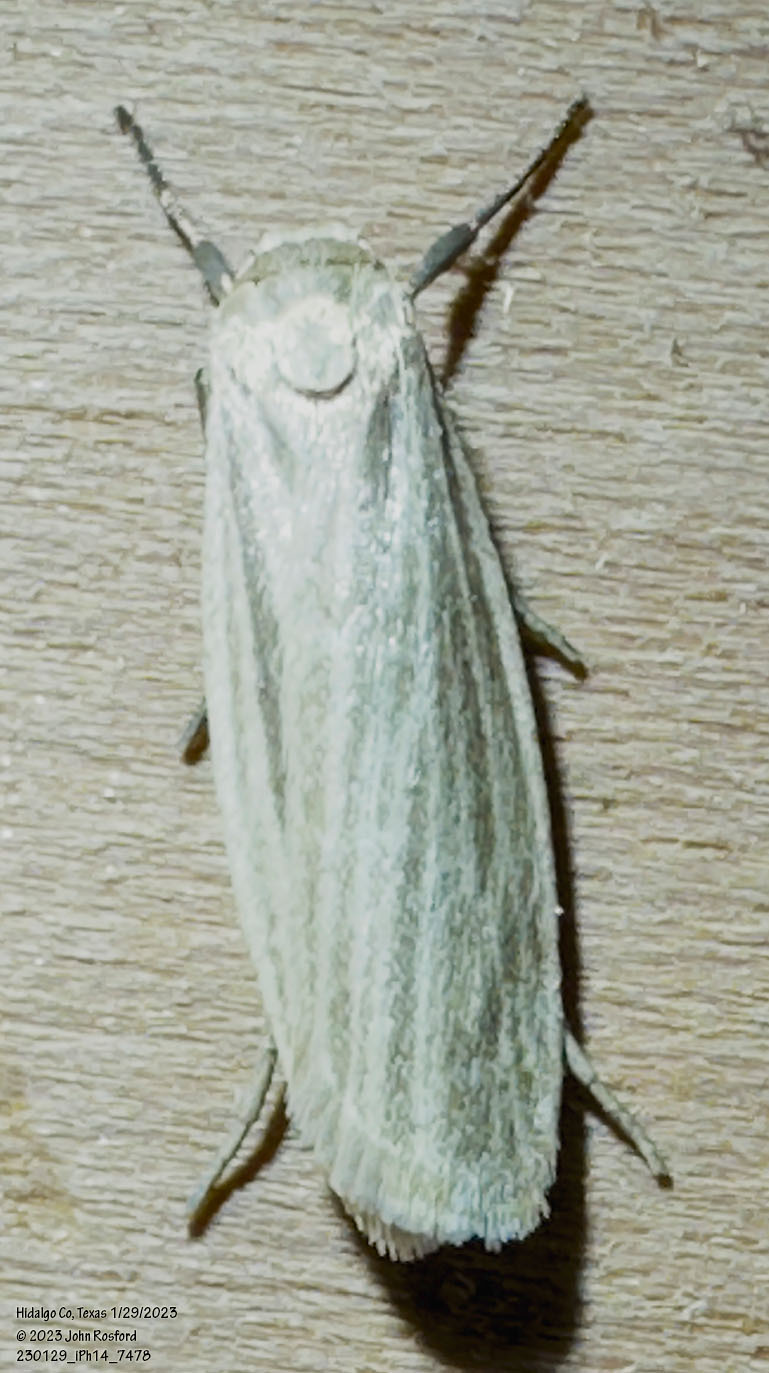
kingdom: Animalia
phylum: Arthropoda
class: Insecta
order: Lepidoptera
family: Erebidae
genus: Crambidia
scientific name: Crambidia pallida
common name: Pale lichen moth
